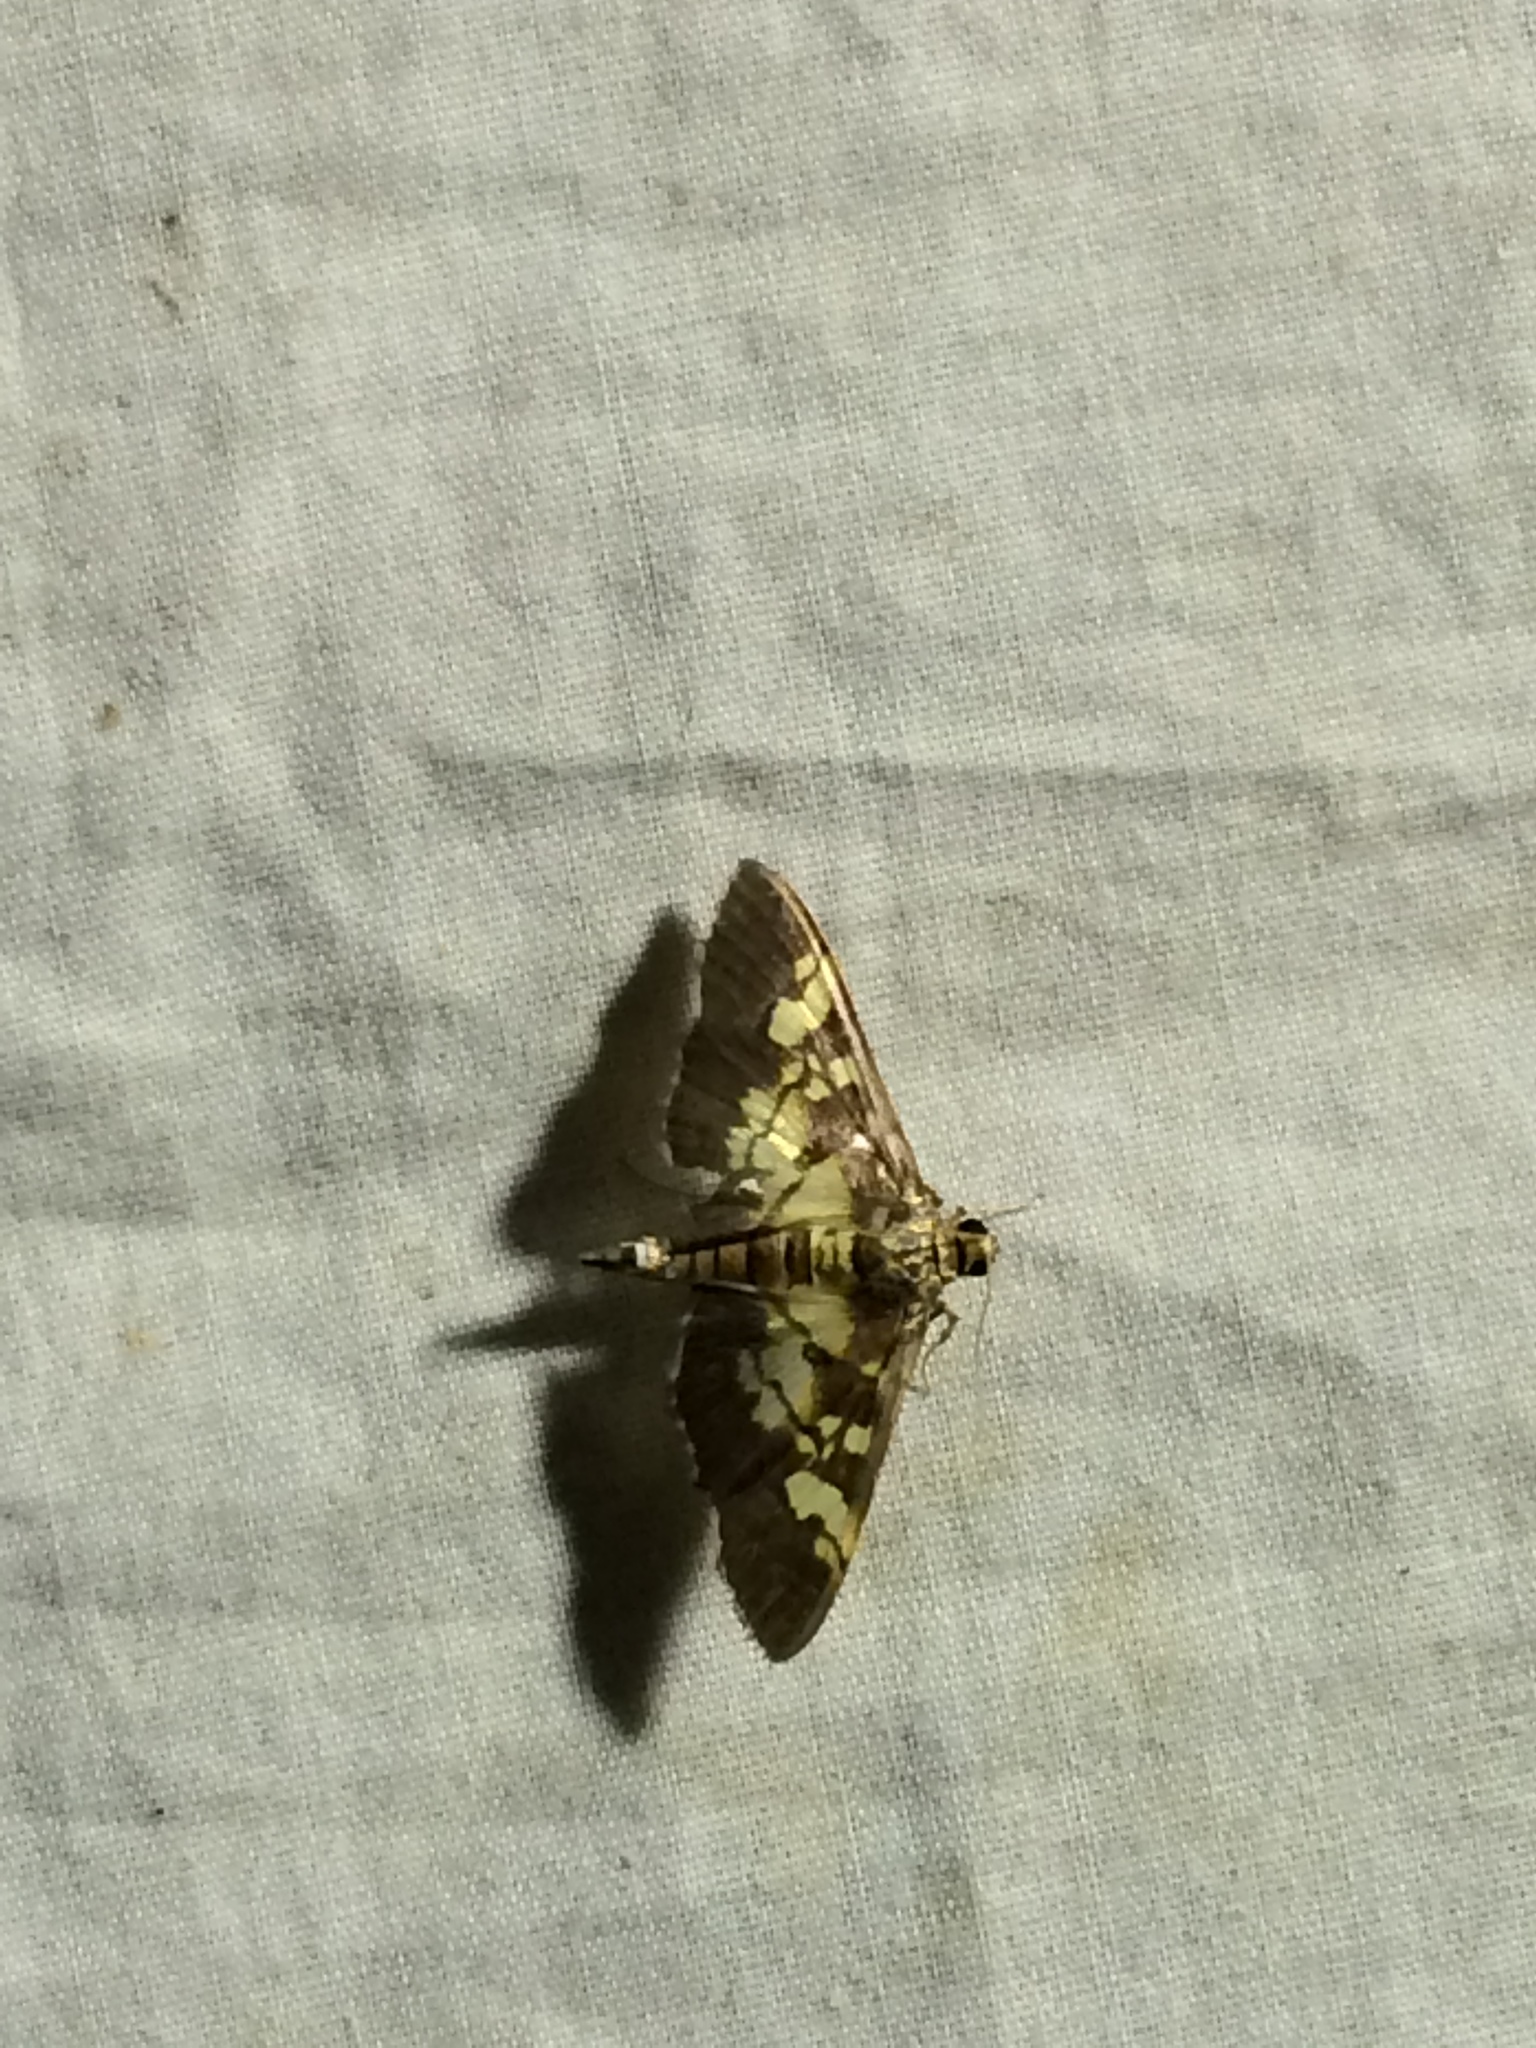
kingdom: Animalia
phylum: Arthropoda
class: Insecta
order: Lepidoptera
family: Crambidae
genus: Uresiphita
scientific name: Uresiphita quinquigera
